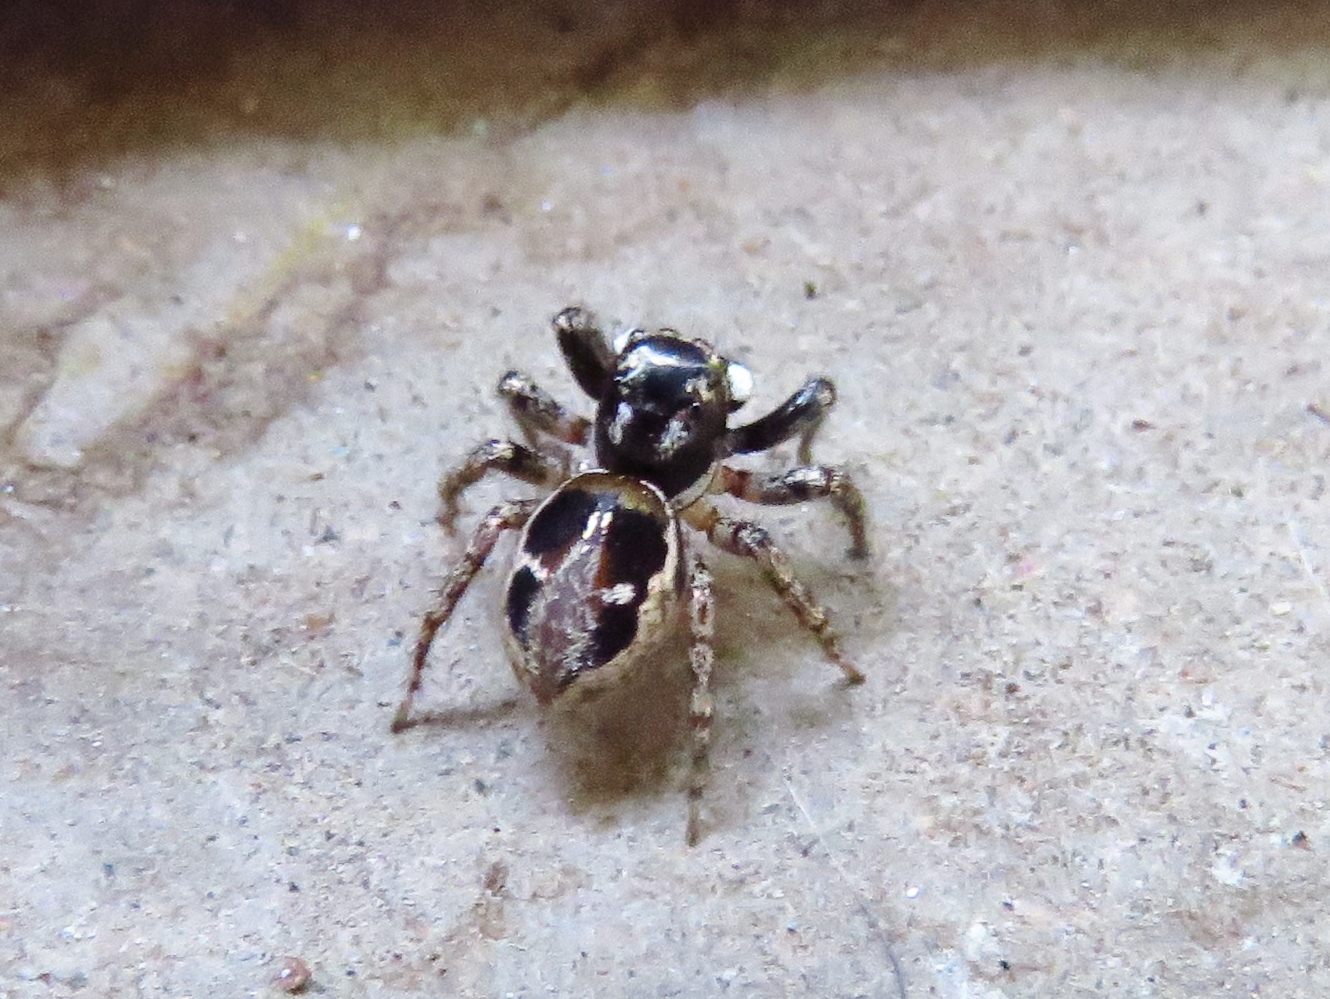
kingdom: Animalia
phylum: Arthropoda
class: Arachnida
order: Araneae
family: Salticidae
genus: Anasaitis
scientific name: Anasaitis canosa
